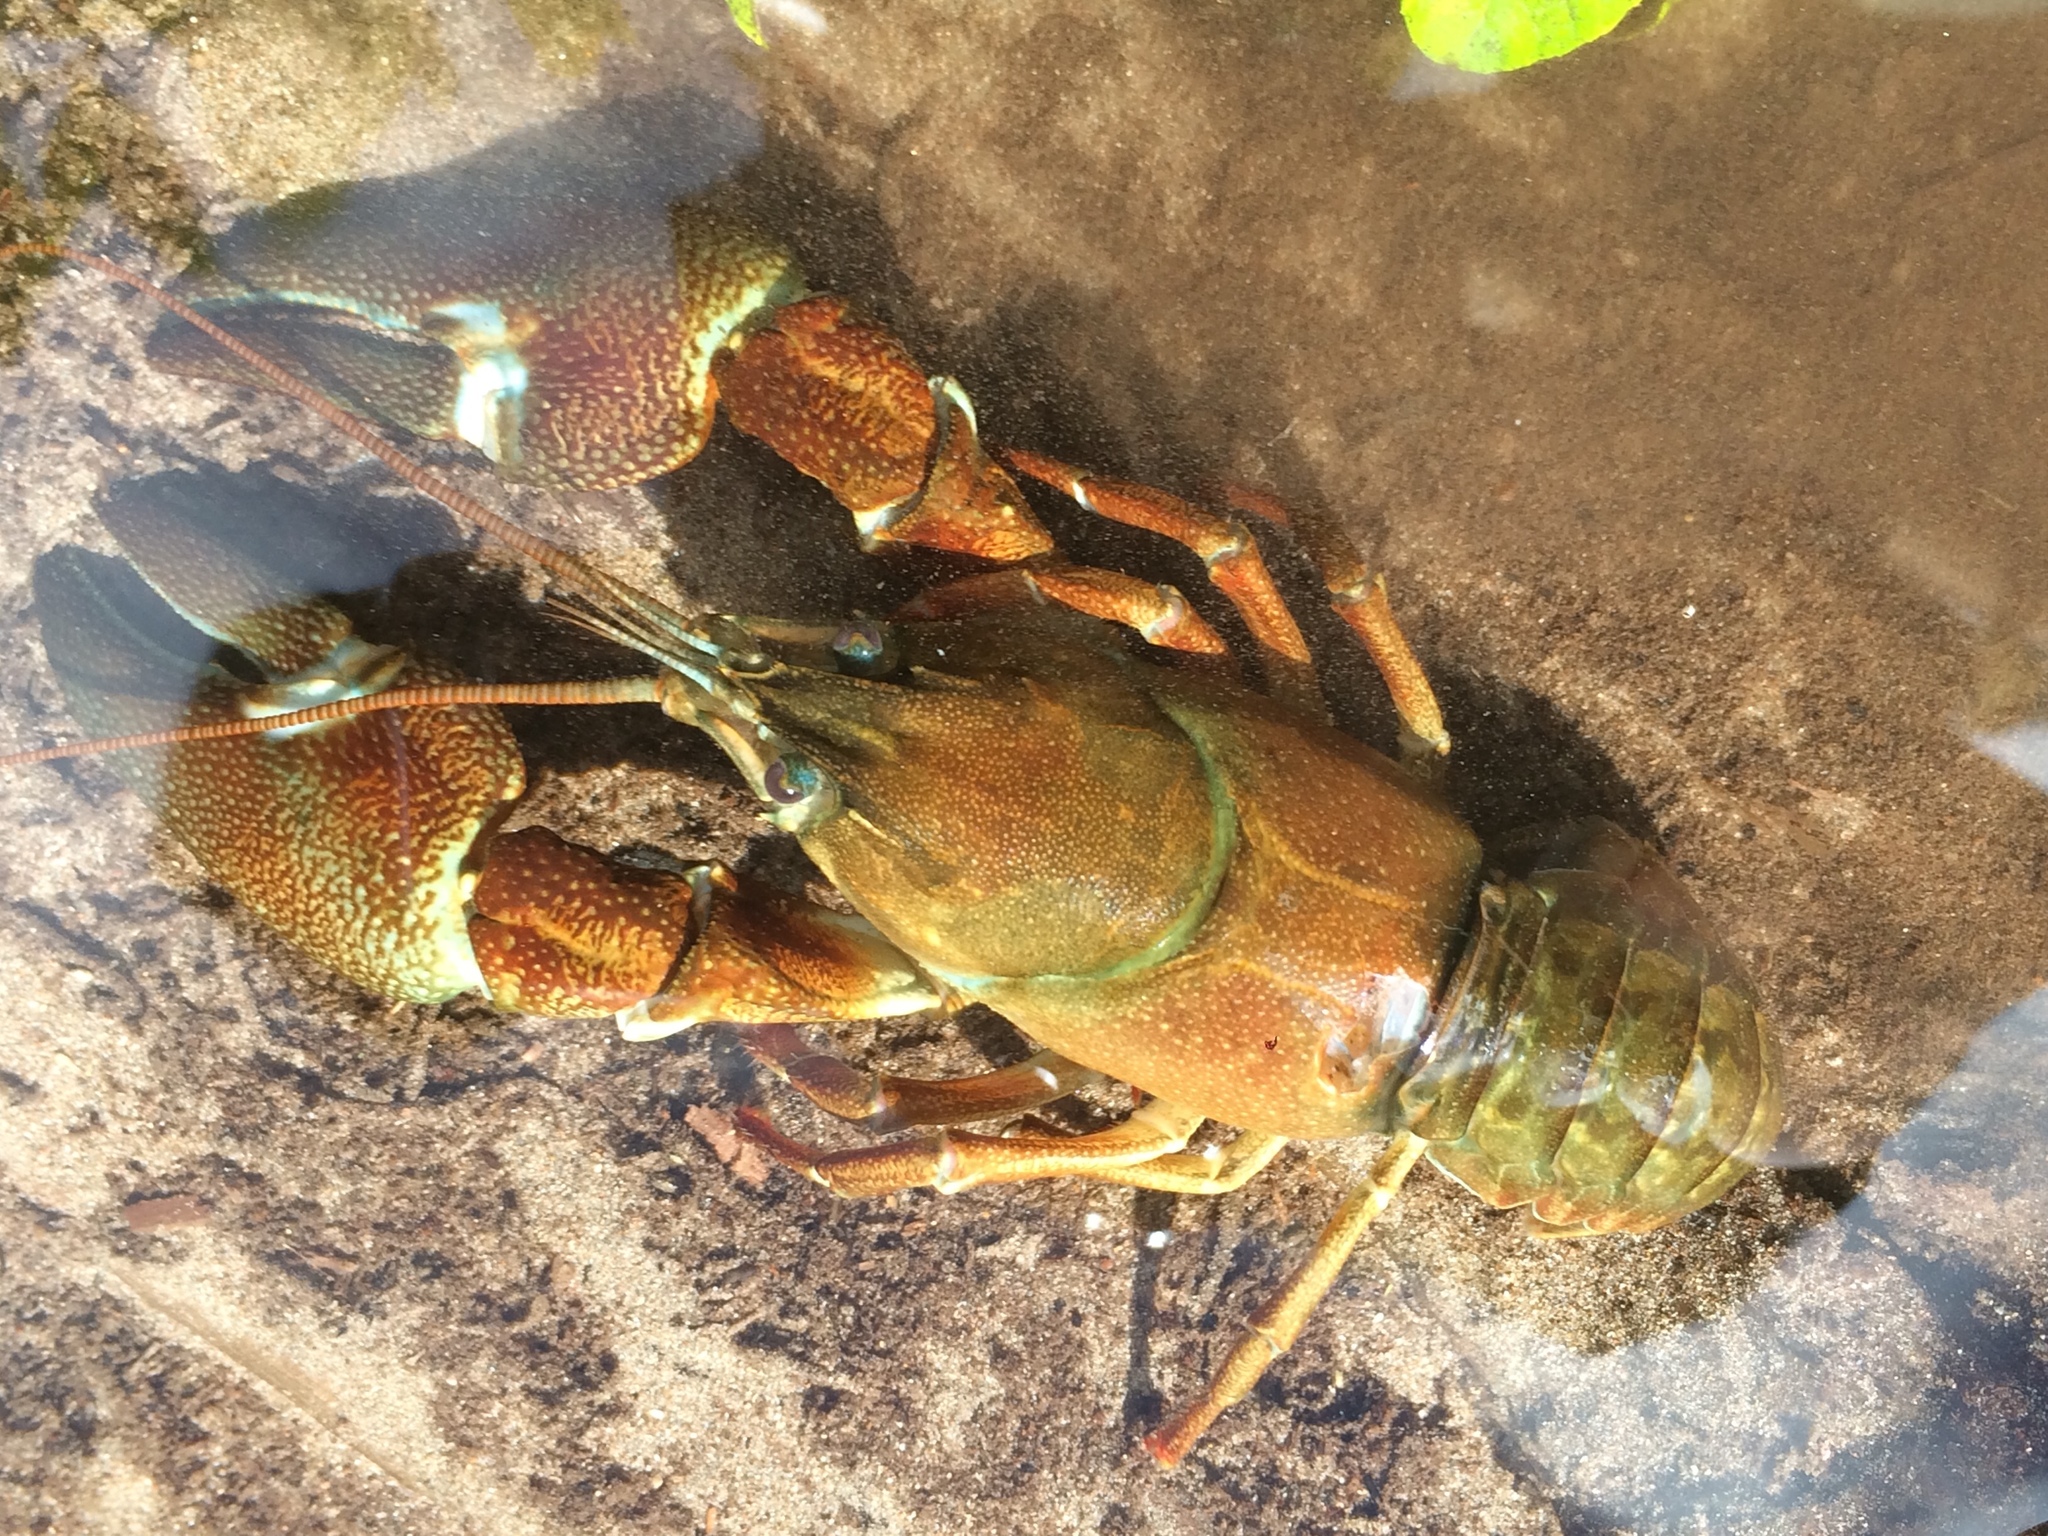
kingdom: Animalia
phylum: Arthropoda
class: Malacostraca
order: Decapoda
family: Astacidae
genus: Pacifastacus
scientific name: Pacifastacus leniusculus
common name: Signal crayfish
